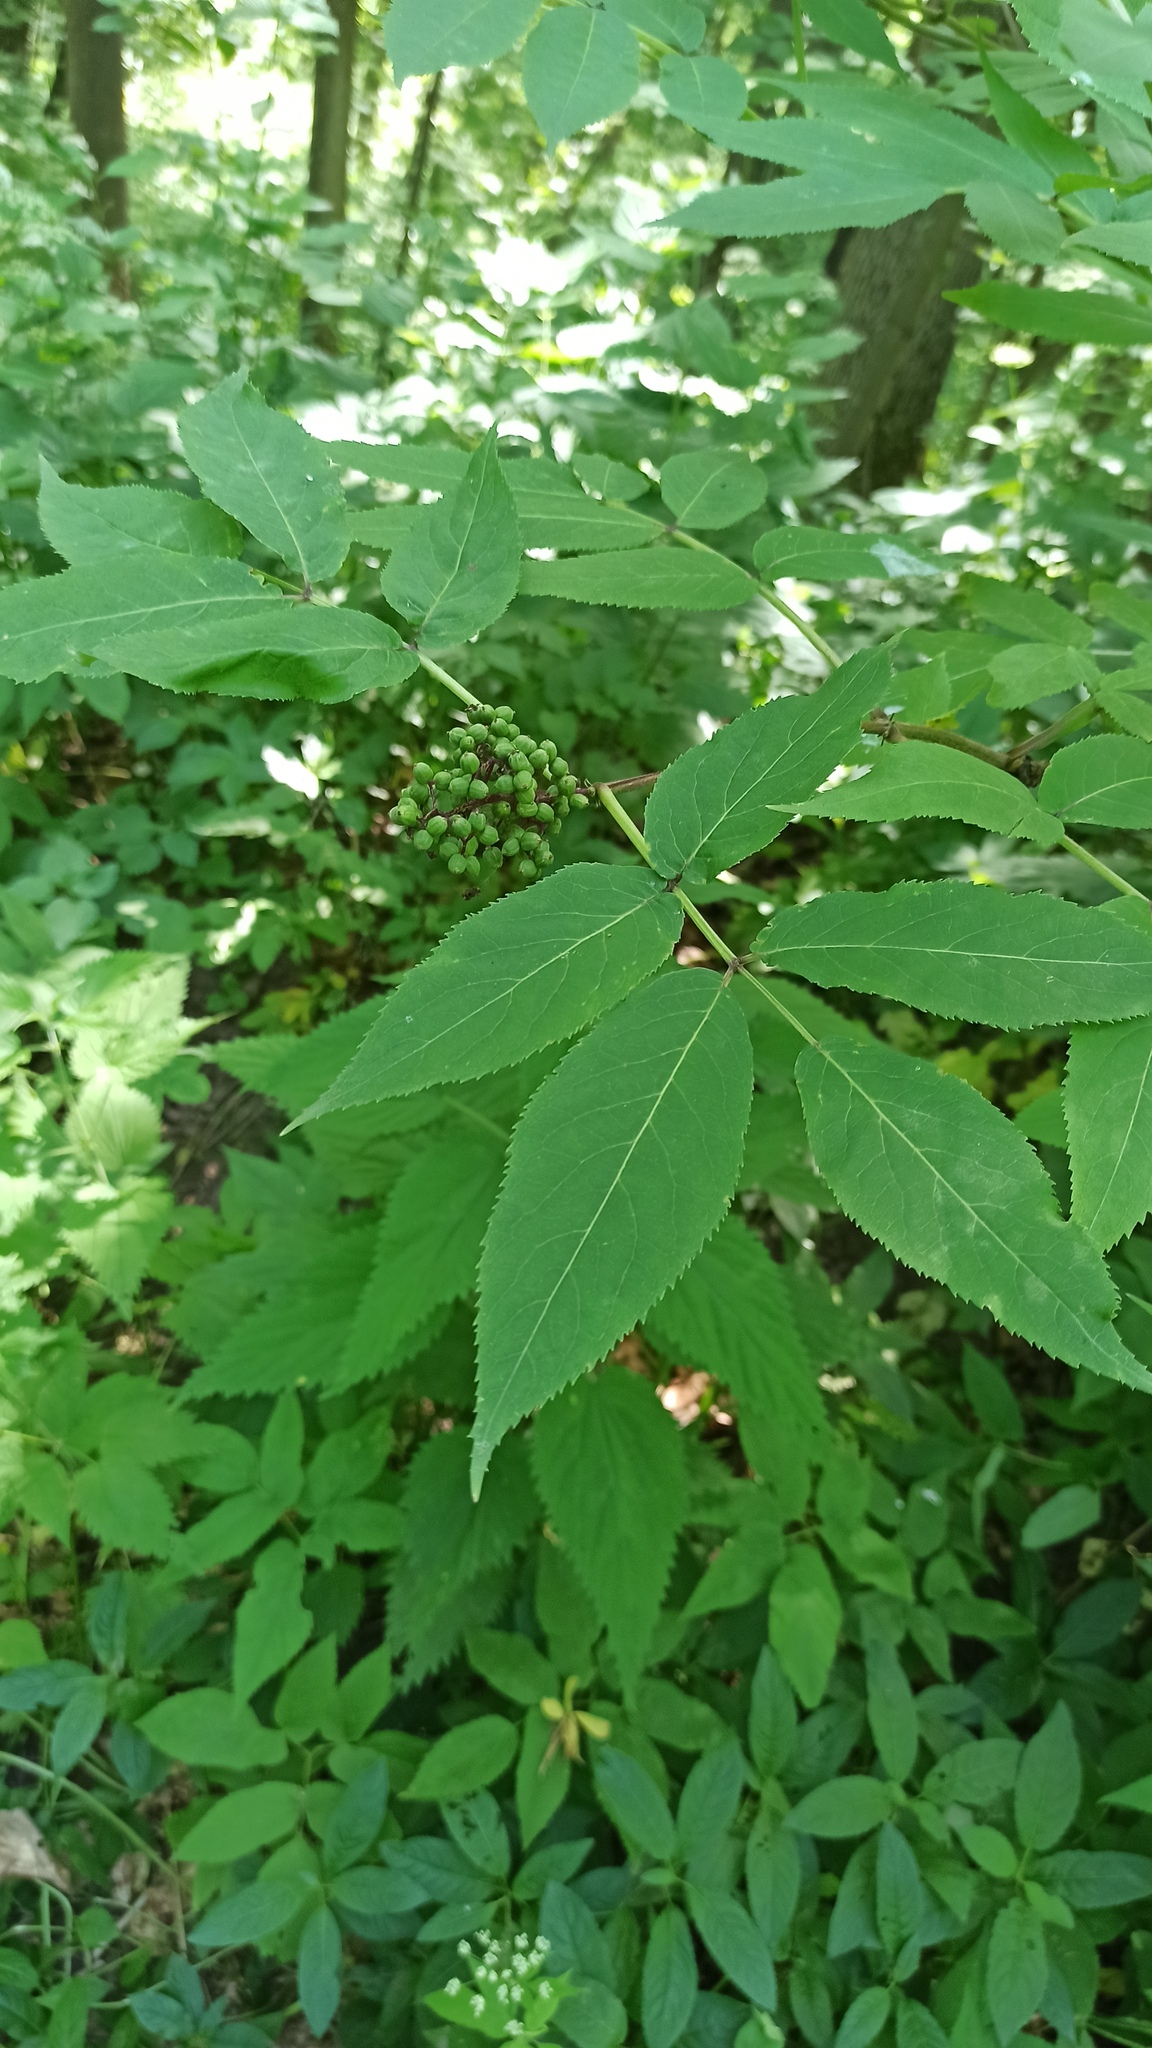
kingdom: Plantae
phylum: Tracheophyta
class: Magnoliopsida
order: Dipsacales
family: Viburnaceae
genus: Sambucus
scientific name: Sambucus racemosa
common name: Red-berried elder
